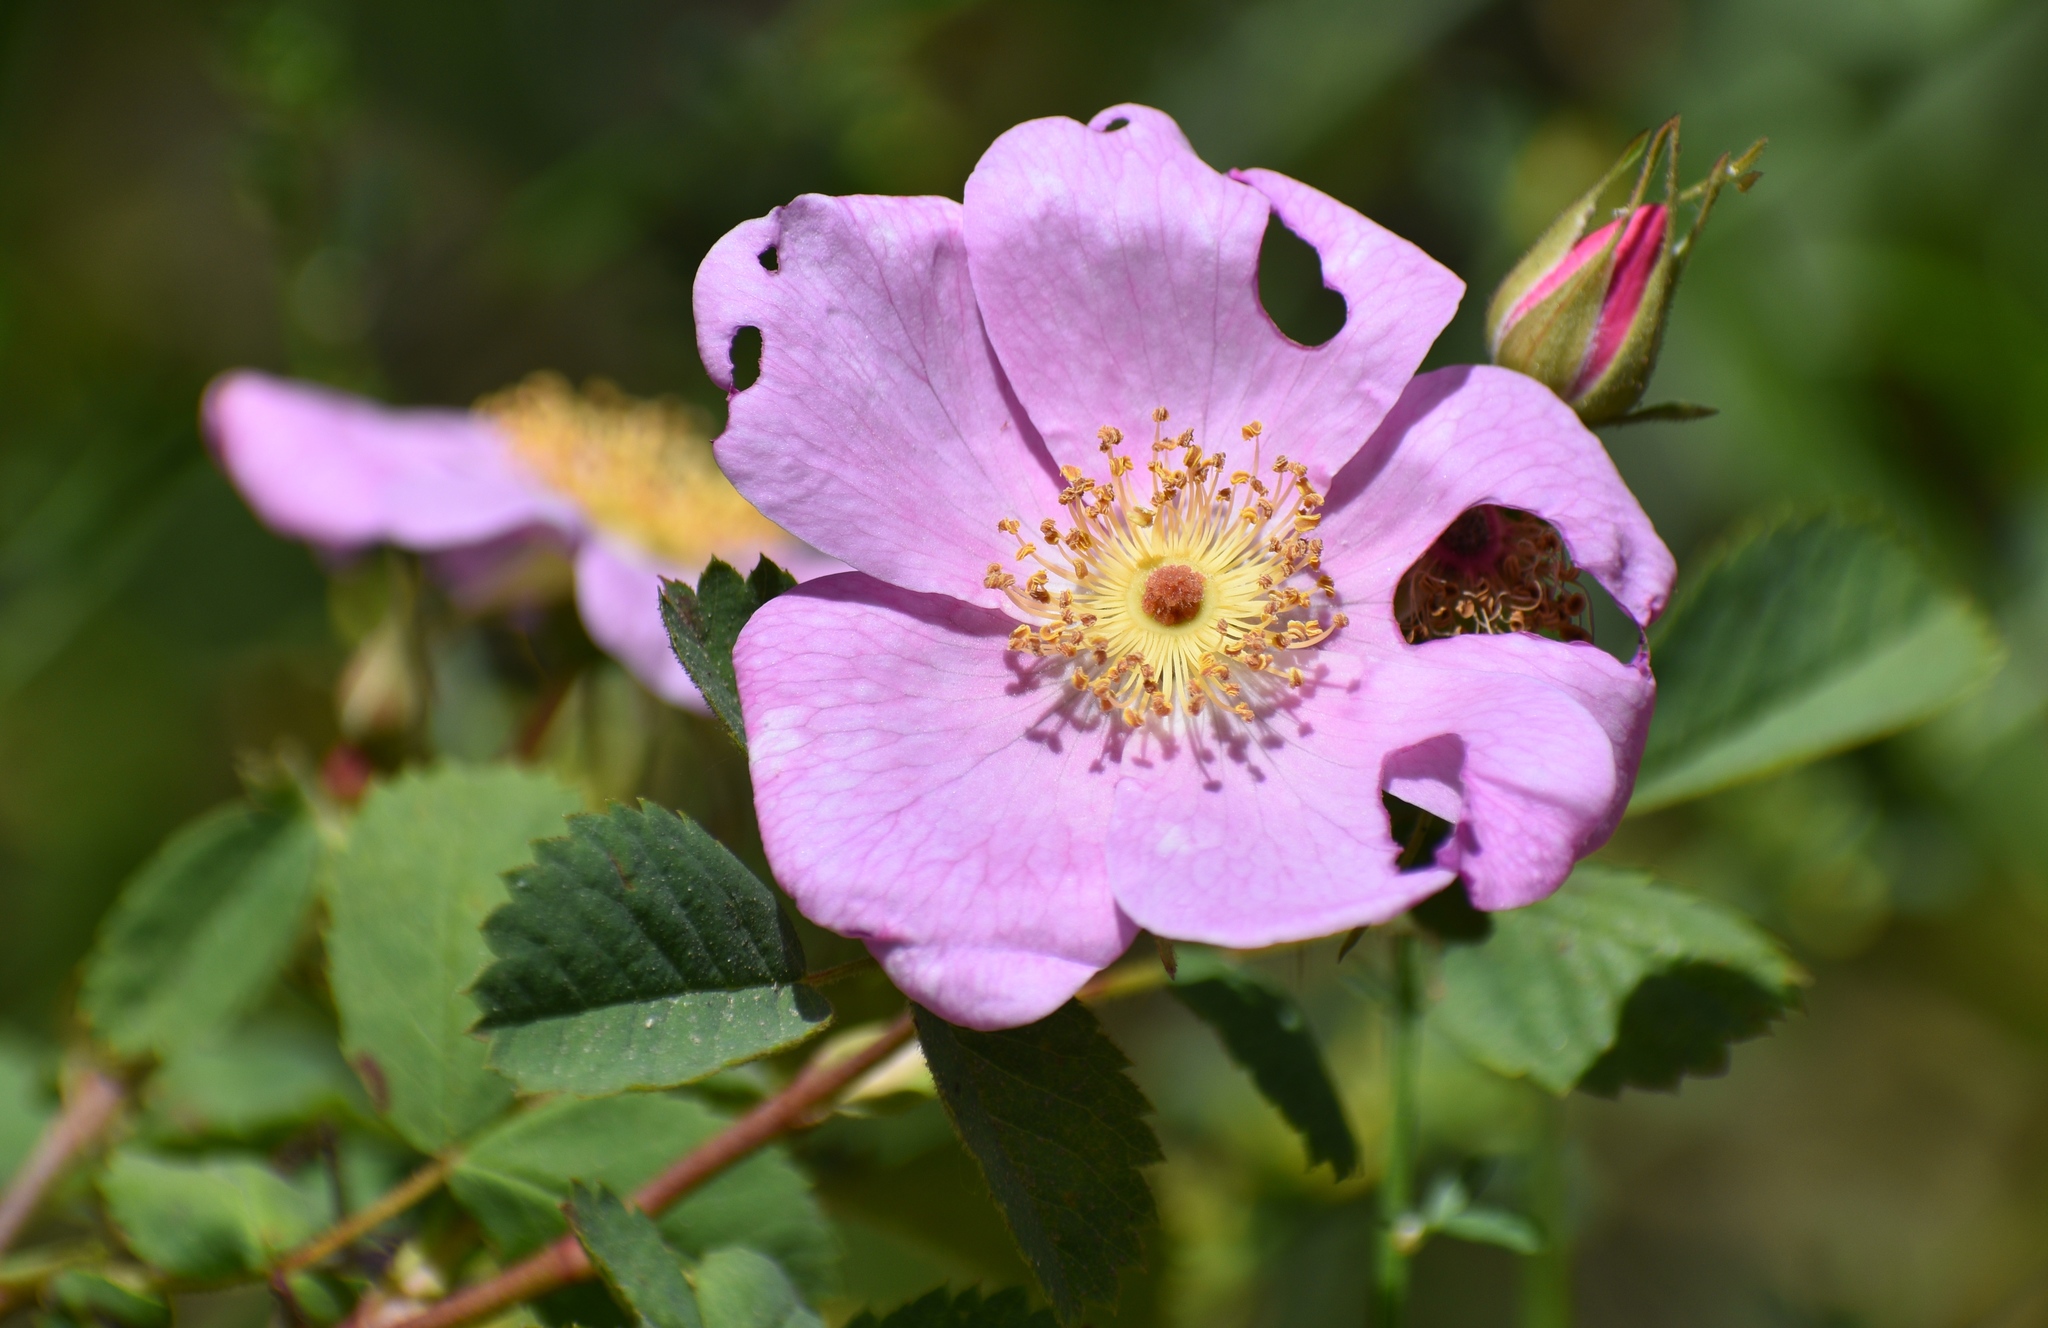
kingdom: Plantae
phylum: Tracheophyta
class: Magnoliopsida
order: Rosales
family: Rosaceae
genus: Rosa
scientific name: Rosa californica
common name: California rose
